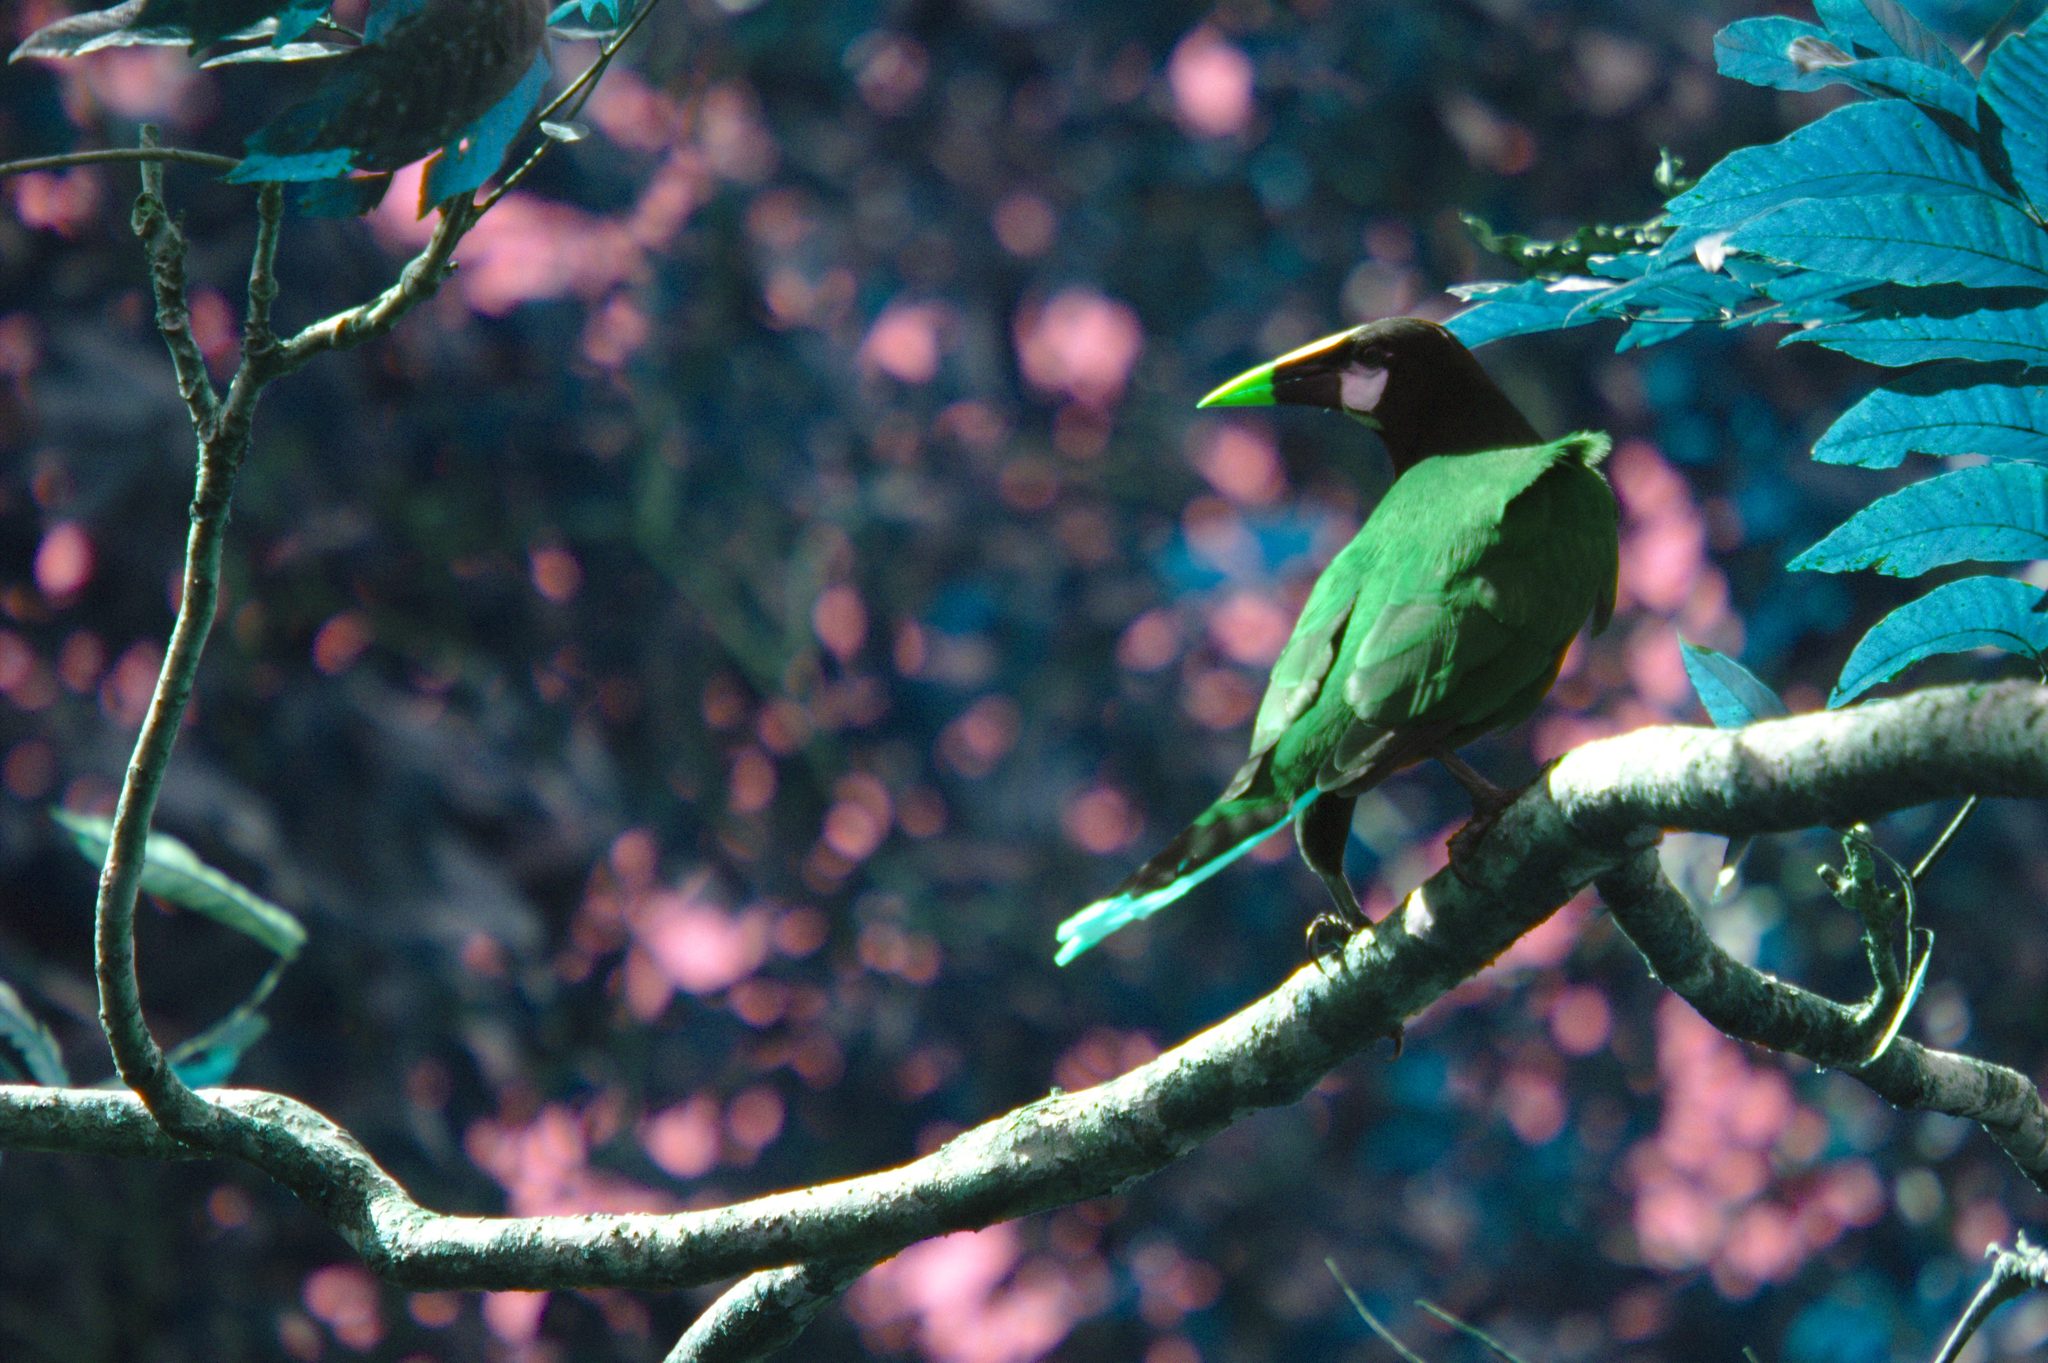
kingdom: Animalia
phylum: Chordata
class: Aves
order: Passeriformes
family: Icteridae
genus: Psarocolius
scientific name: Psarocolius montezuma
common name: Montezuma oropendola
